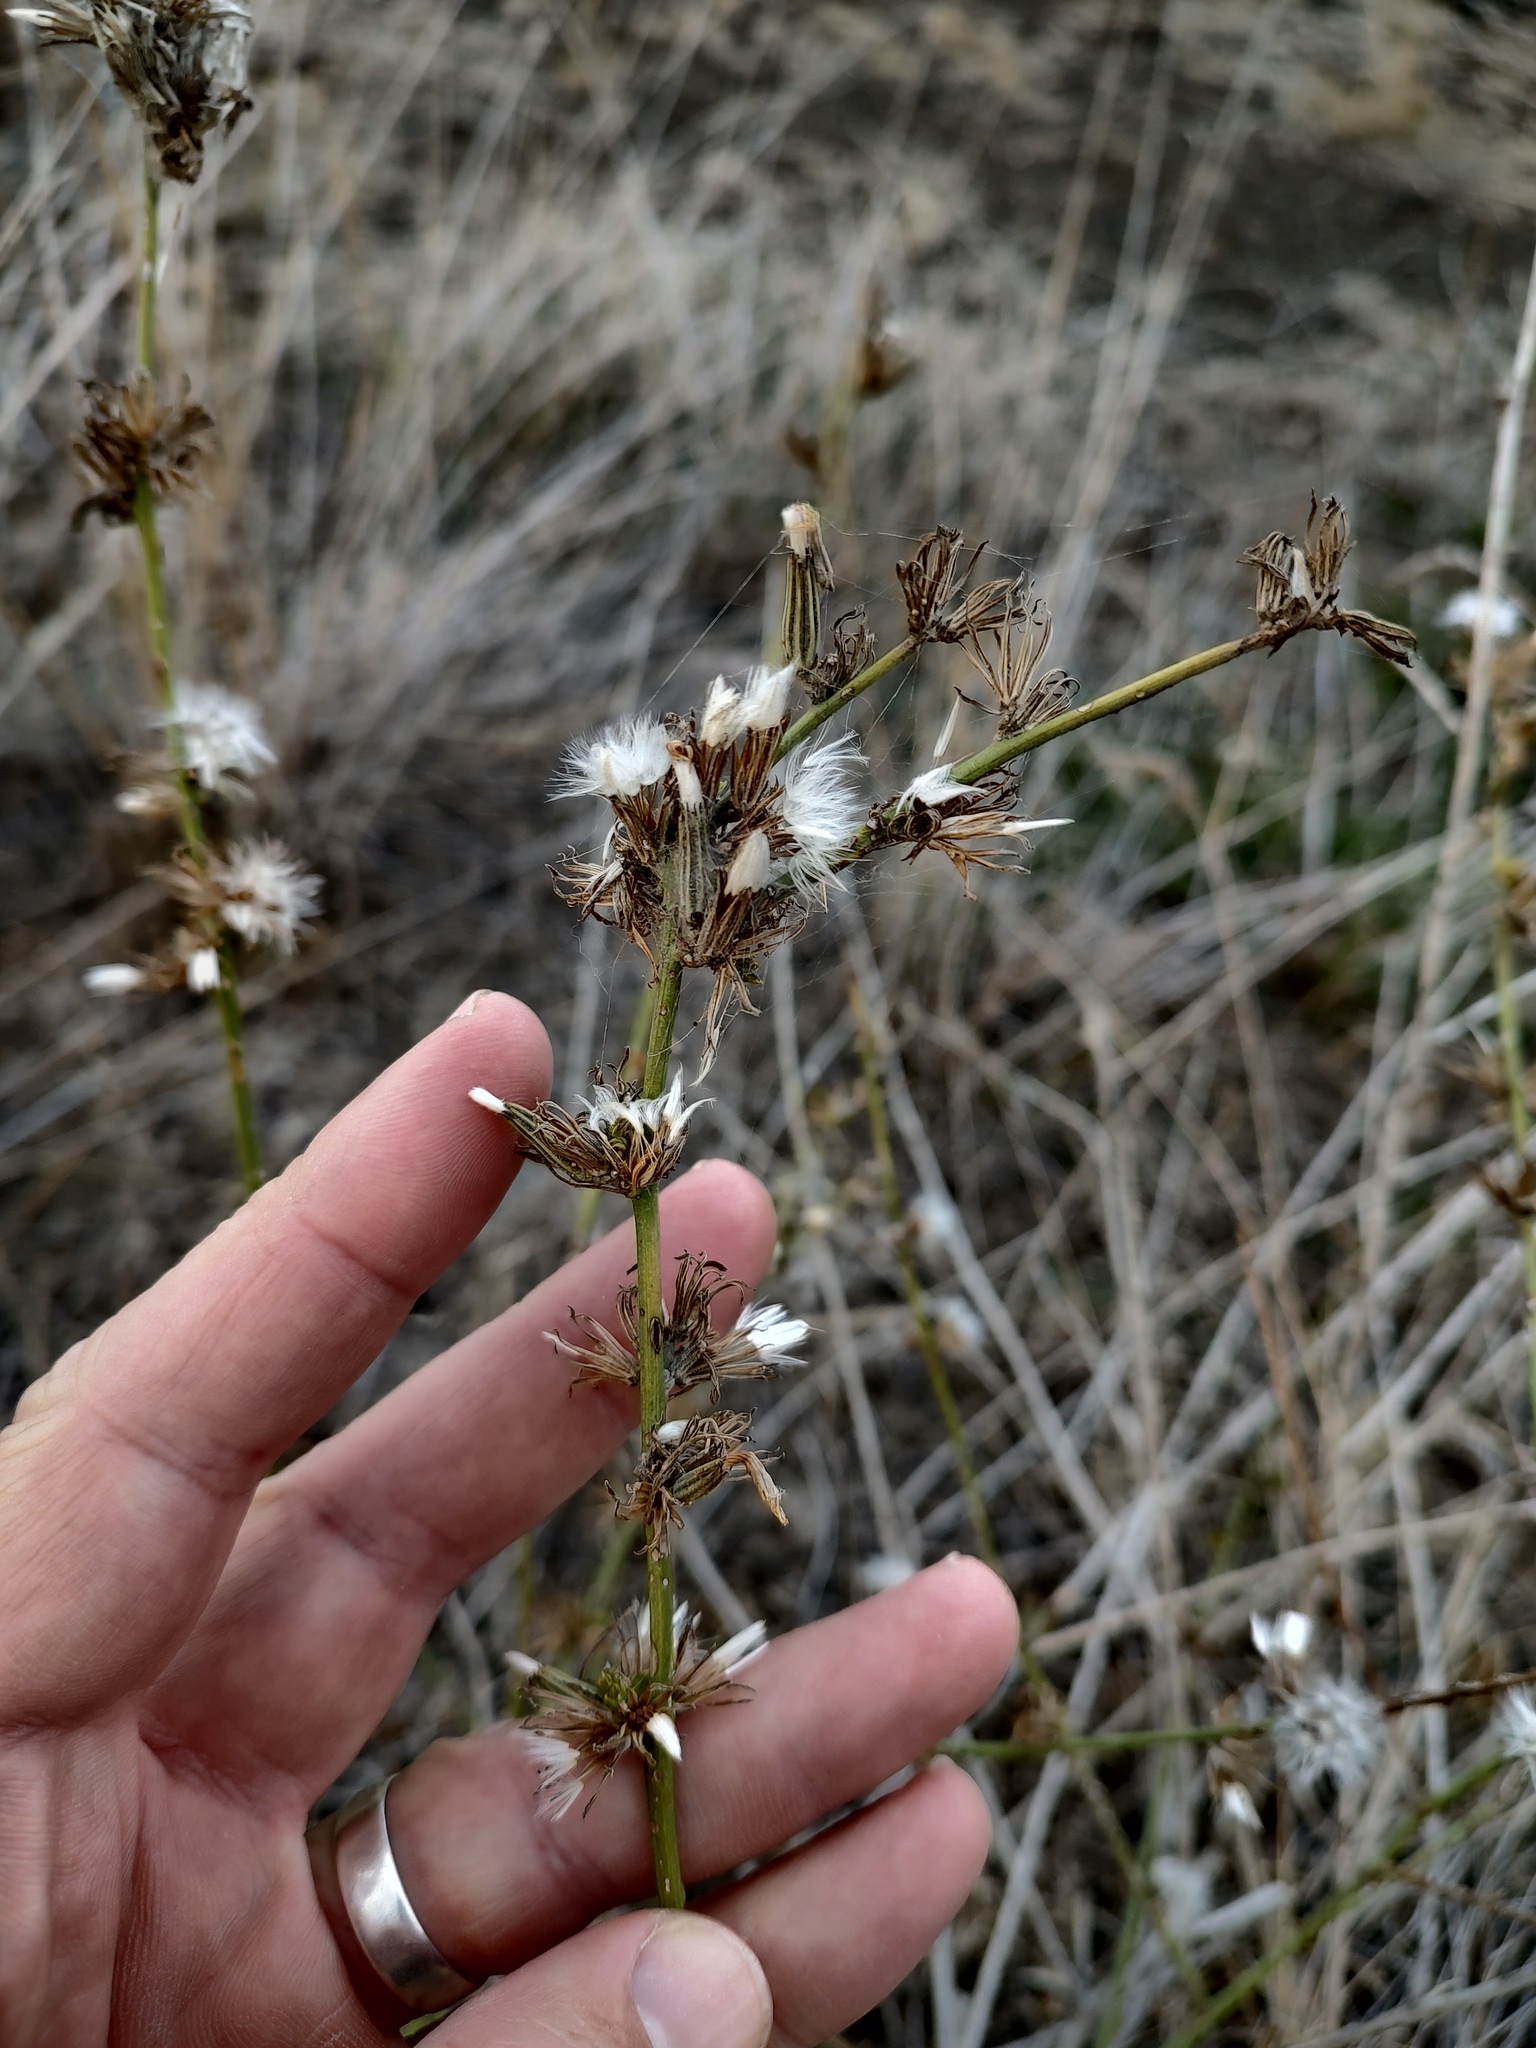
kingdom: Plantae
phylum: Tracheophyta
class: Magnoliopsida
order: Asterales
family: Asteraceae
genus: Chondrilla
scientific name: Chondrilla juncea
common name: Skeleton weed
